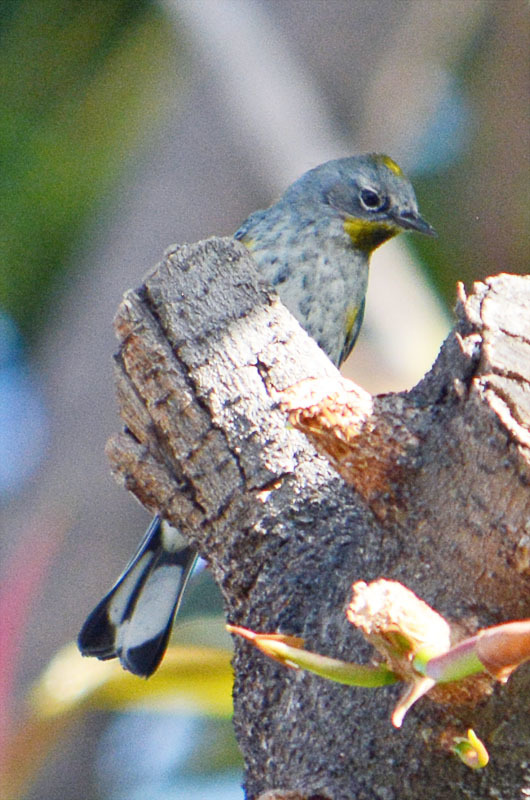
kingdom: Animalia
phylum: Chordata
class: Aves
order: Passeriformes
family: Parulidae
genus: Setophaga
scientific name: Setophaga auduboni
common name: Audubon's warbler
